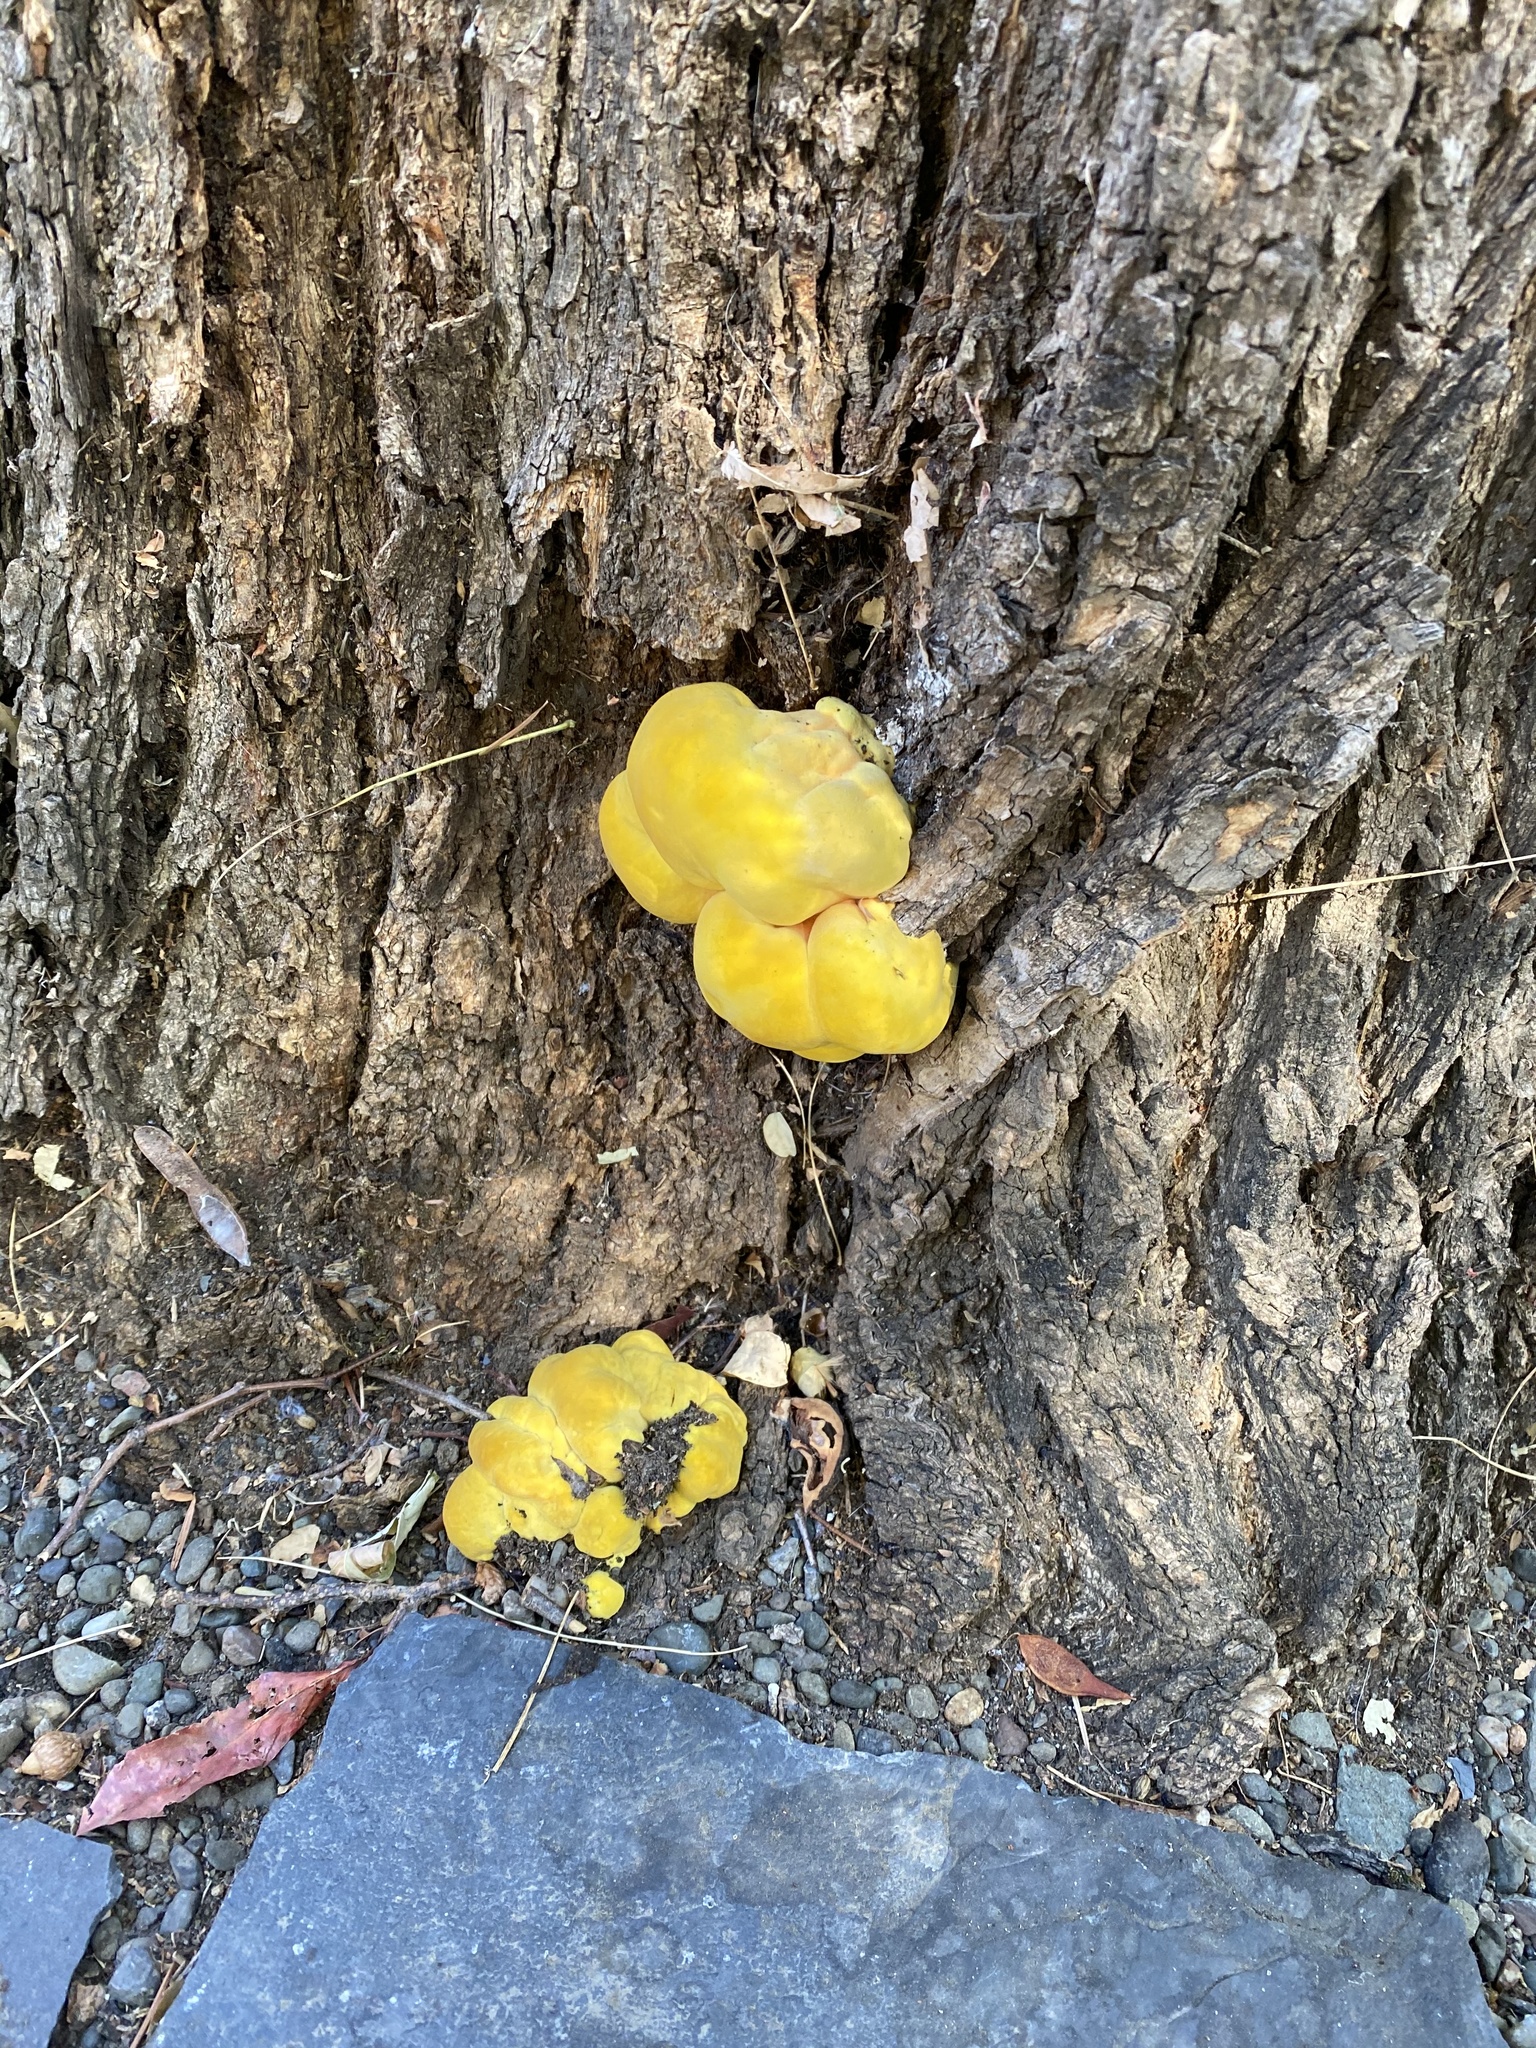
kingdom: Fungi
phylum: Basidiomycota
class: Agaricomycetes
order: Polyporales
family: Laetiporaceae
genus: Laetiporus
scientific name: Laetiporus gilbertsonii
